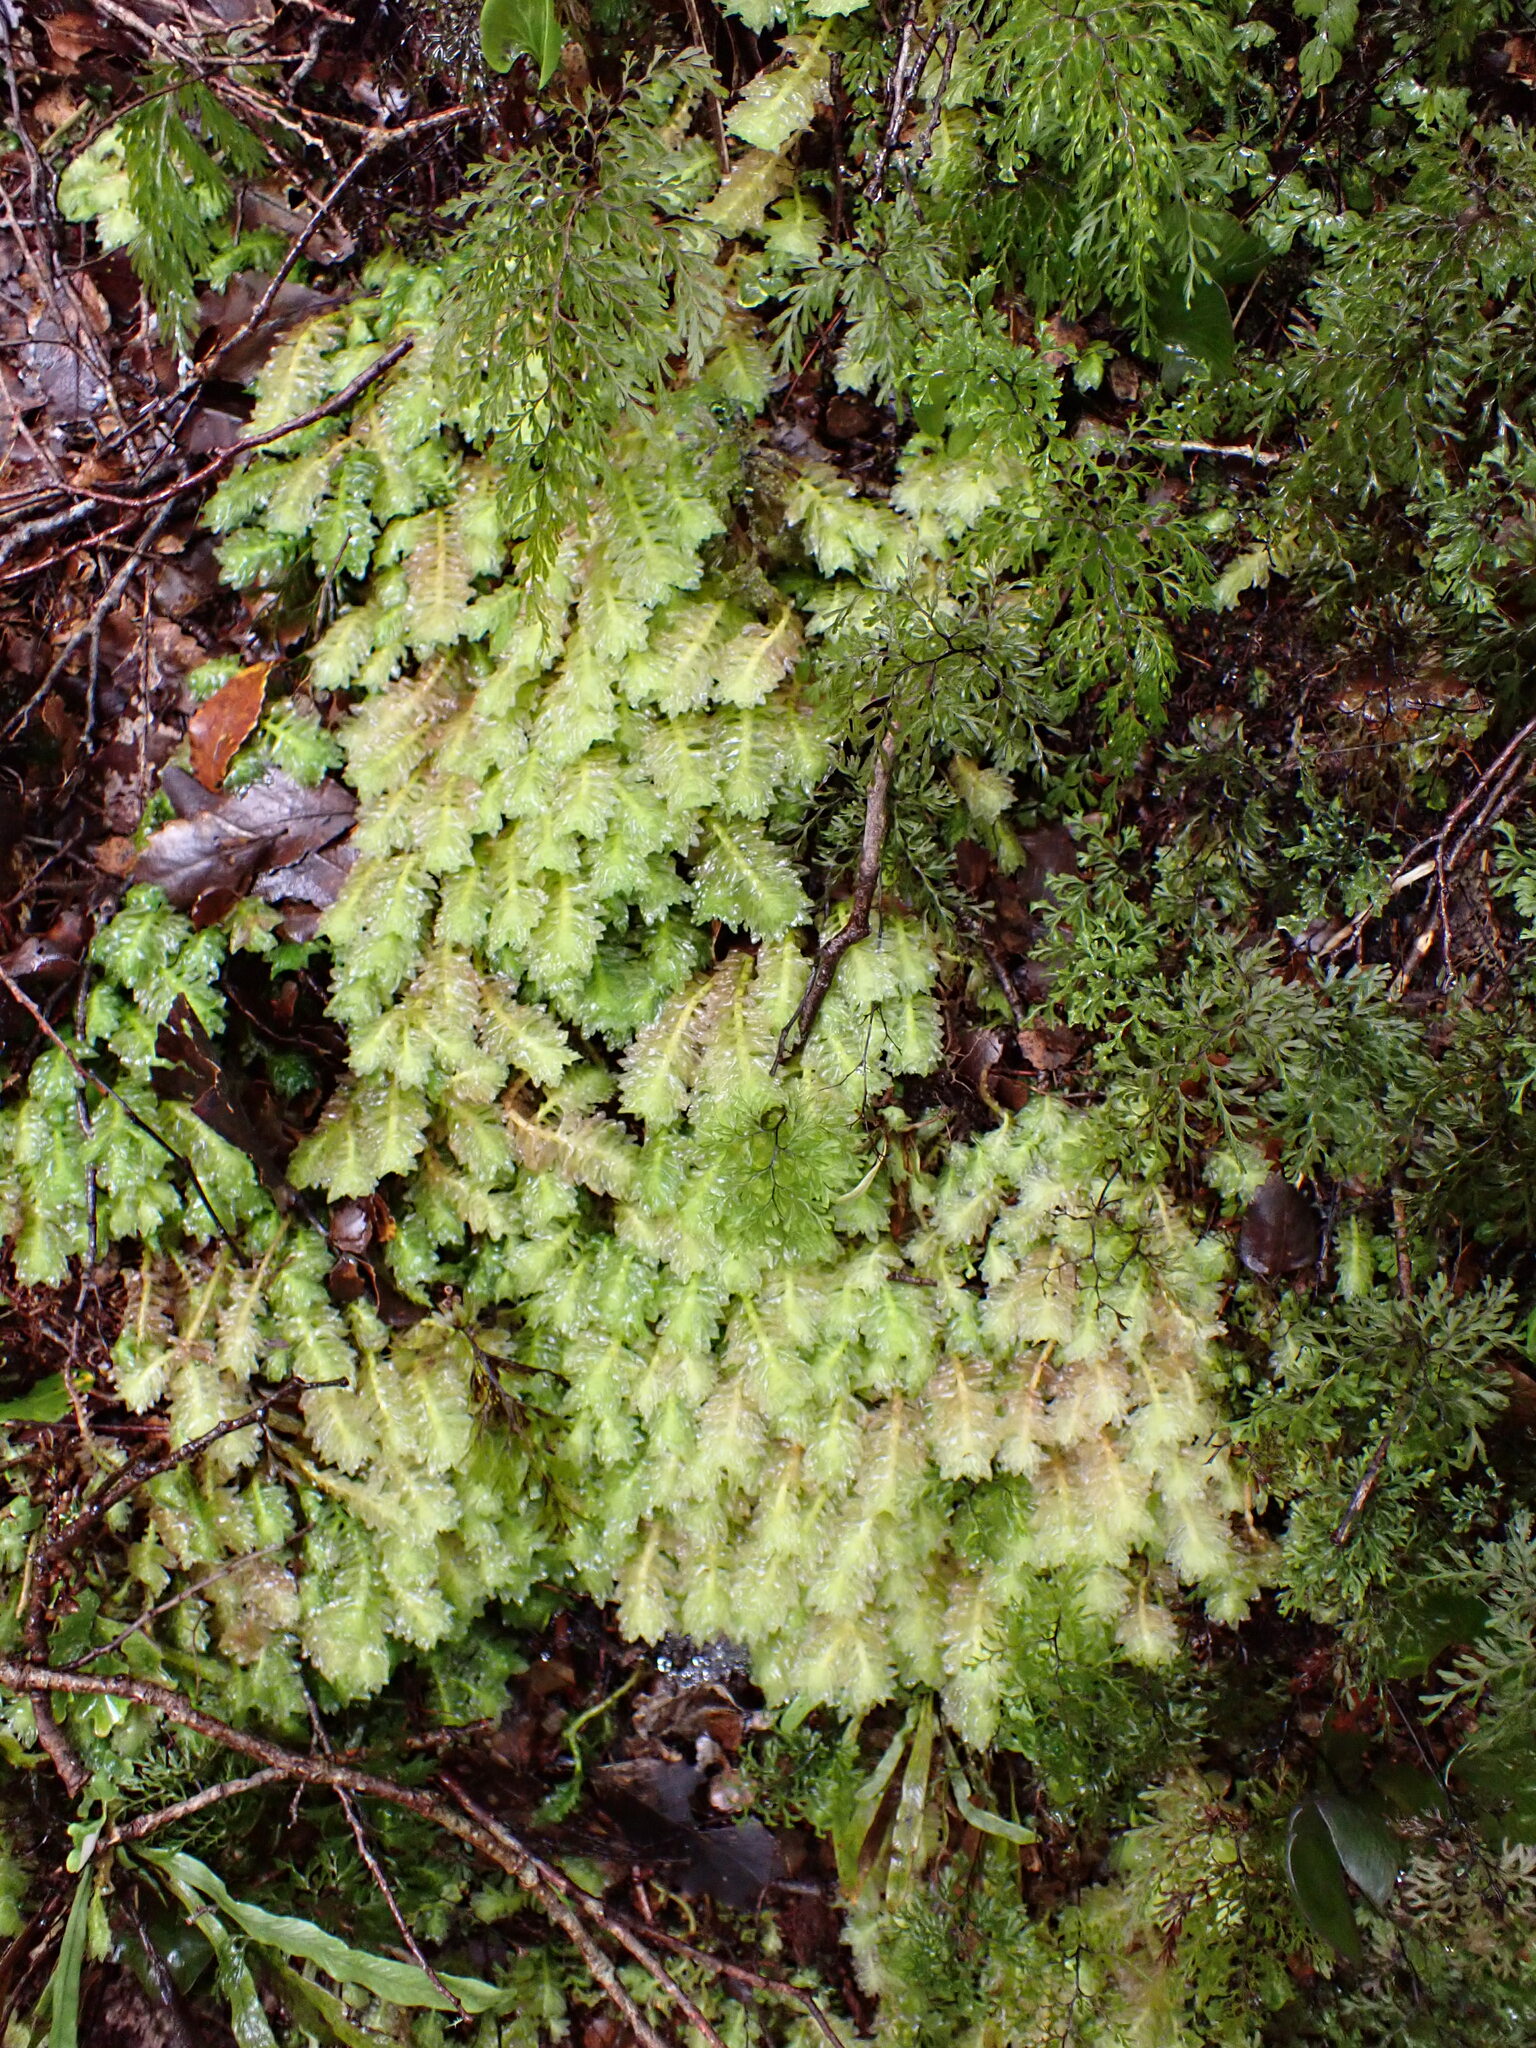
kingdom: Plantae
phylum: Marchantiophyta
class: Jungermanniopsida
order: Jungermanniales
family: Schistochilaceae
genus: Schistochila
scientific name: Schistochila appendiculata
